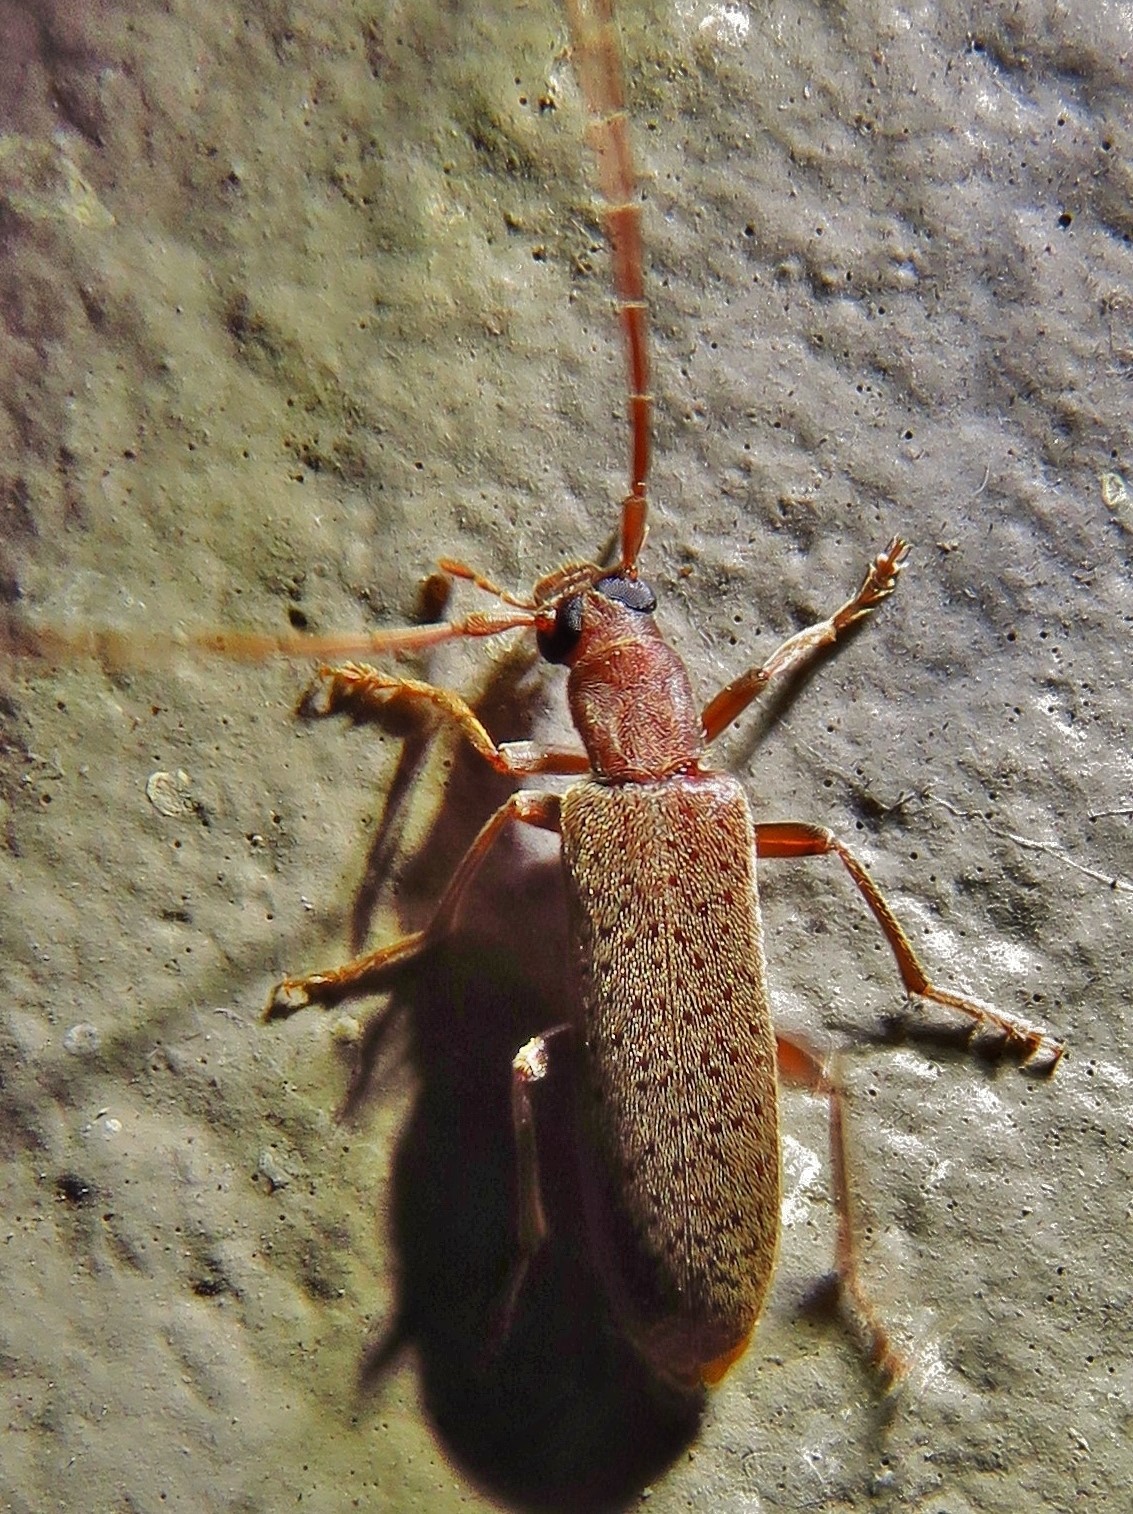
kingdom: Animalia
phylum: Arthropoda
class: Insecta
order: Coleoptera
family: Oedemeridae
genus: Sparedrus
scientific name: Sparedrus aspersus
